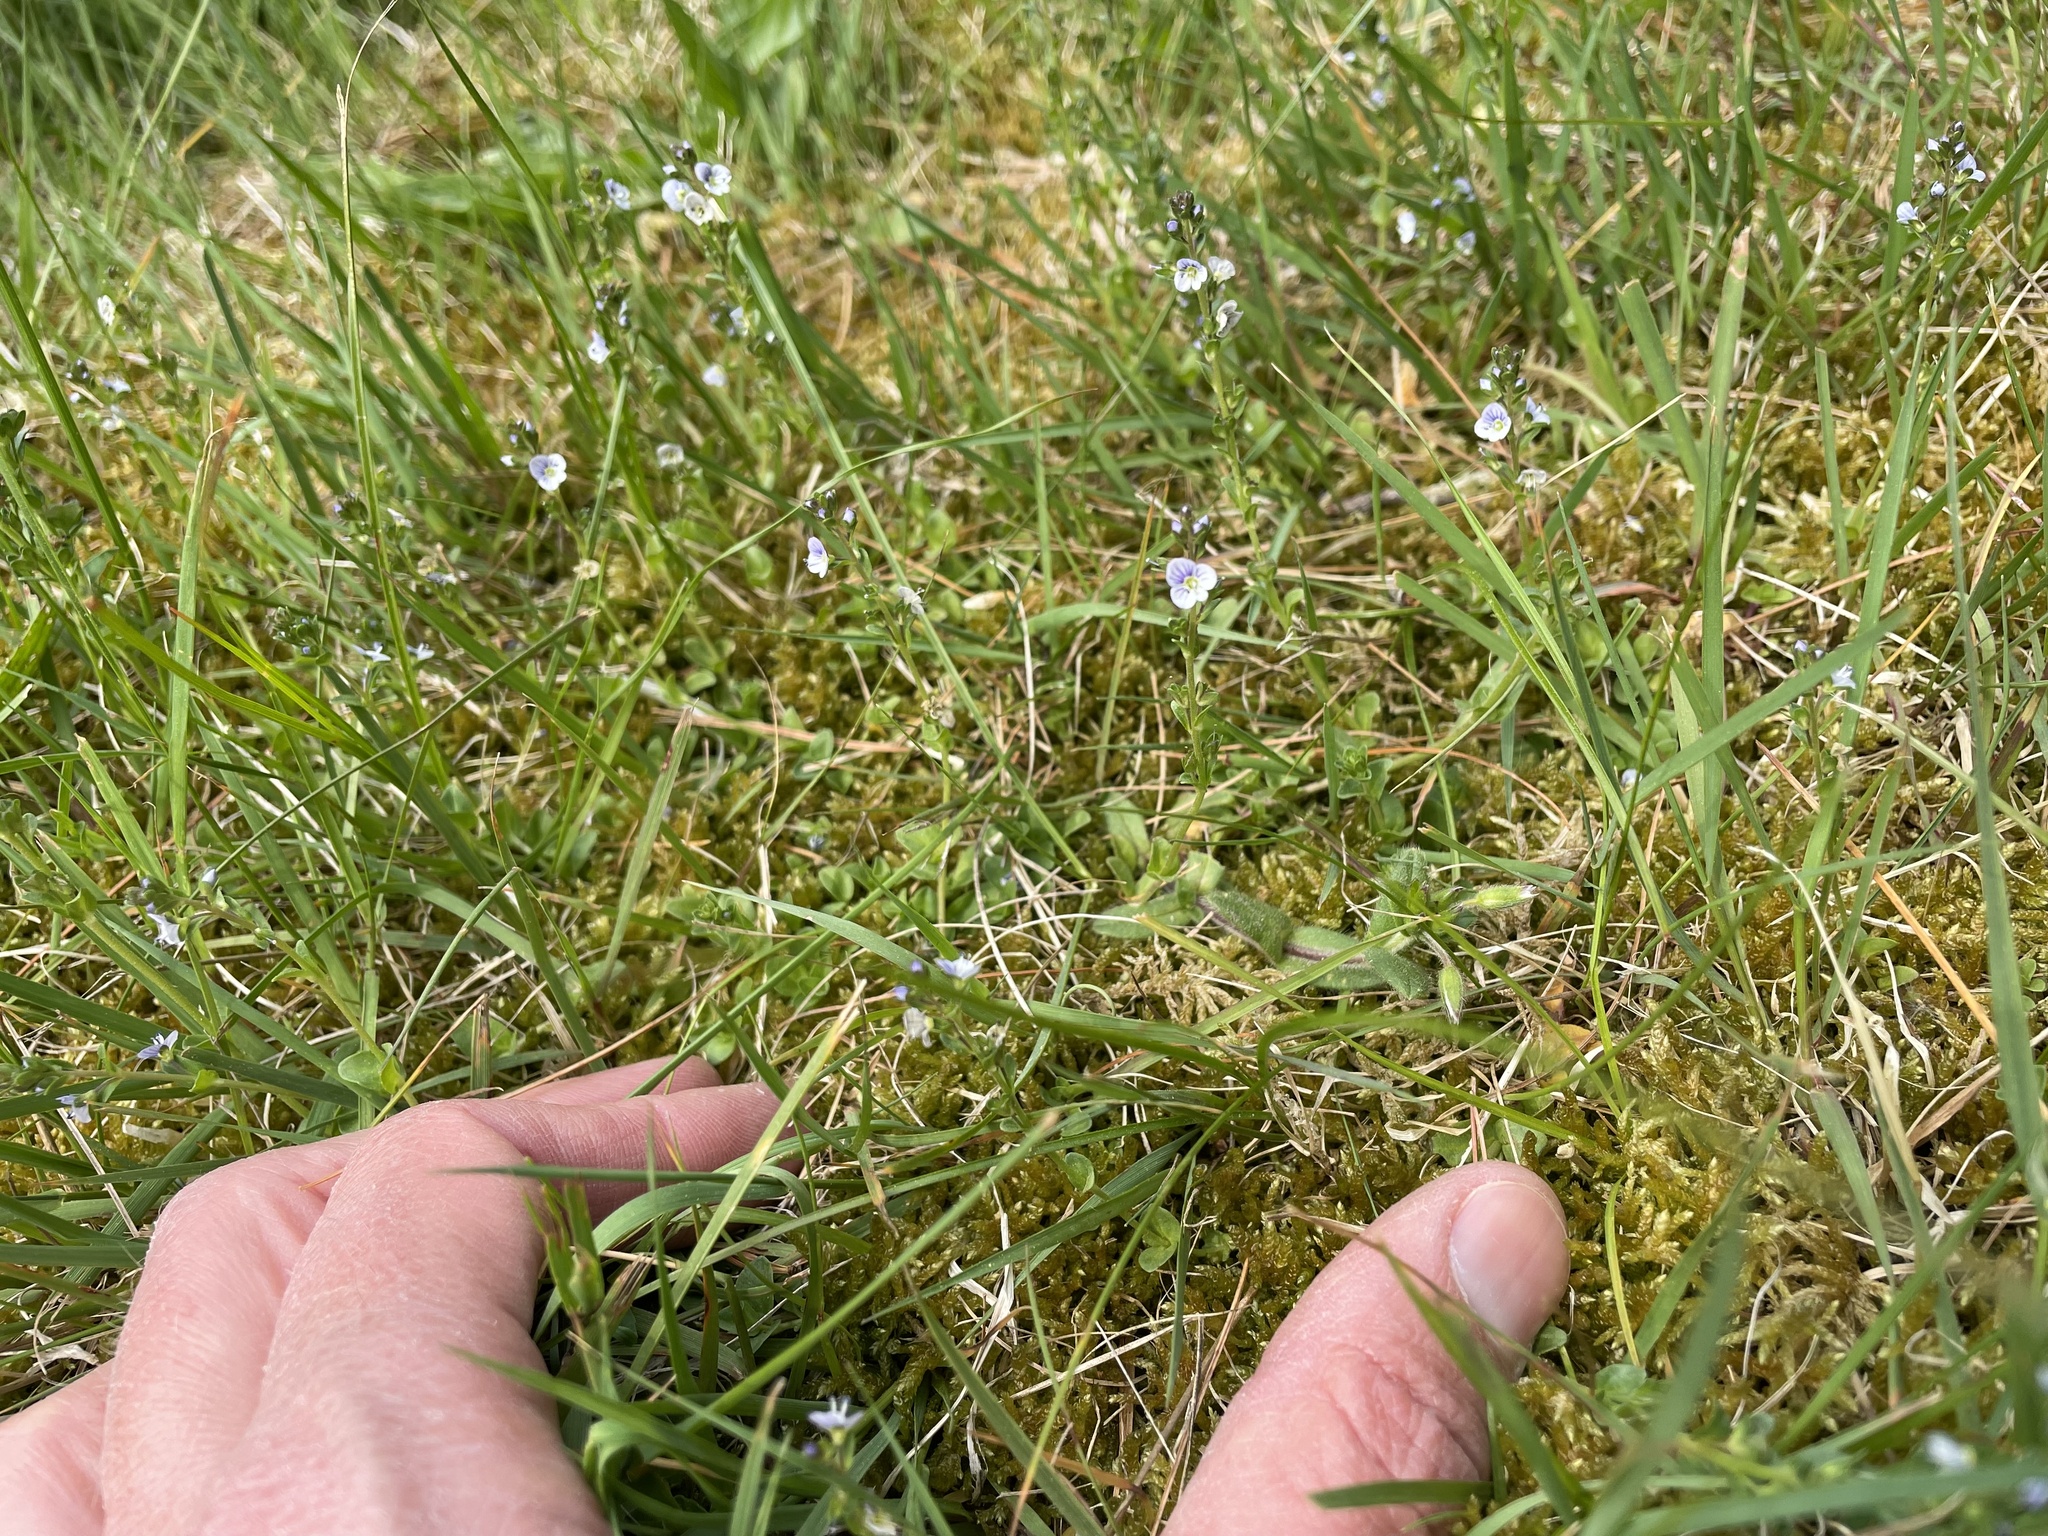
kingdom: Plantae
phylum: Tracheophyta
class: Magnoliopsida
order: Lamiales
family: Plantaginaceae
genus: Veronica
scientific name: Veronica serpyllifolia
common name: Thyme-leaved speedwell
